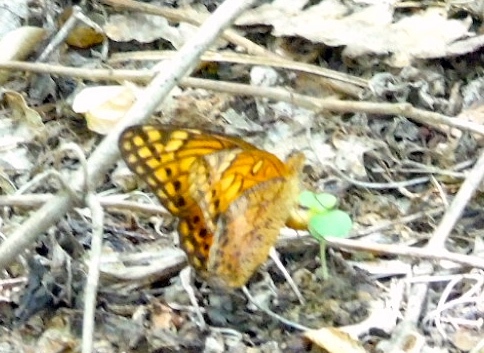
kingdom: Animalia
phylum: Arthropoda
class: Insecta
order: Lepidoptera
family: Nymphalidae
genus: Euptoieta
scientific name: Euptoieta hegesia
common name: Mexican fritillary
